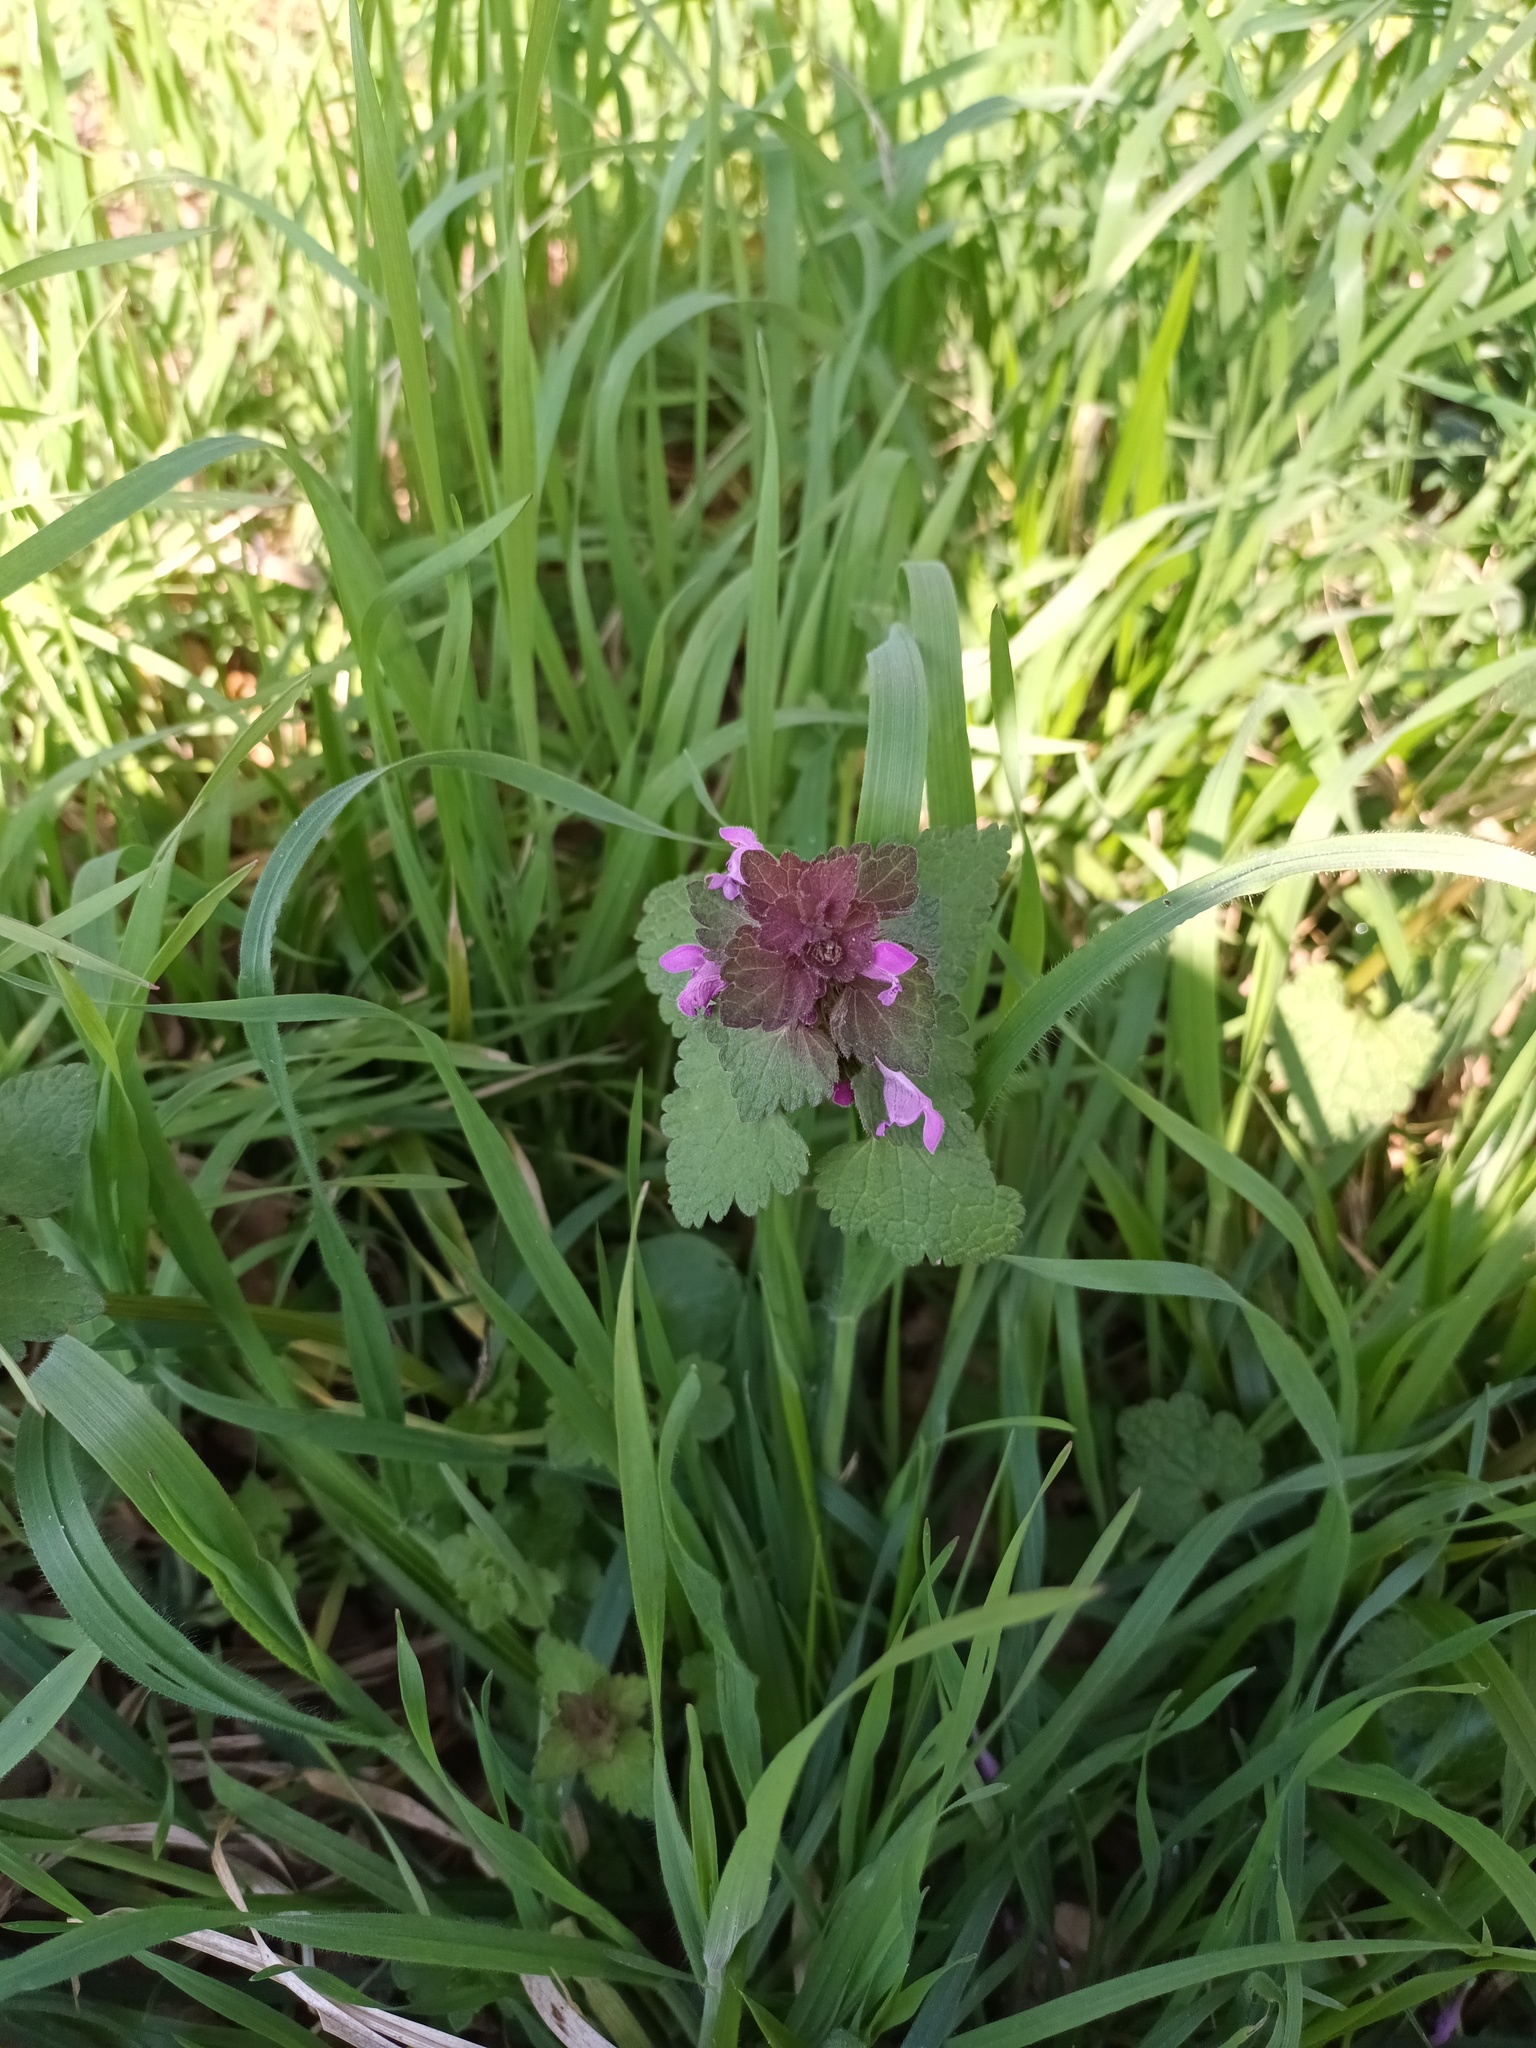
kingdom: Plantae
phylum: Tracheophyta
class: Magnoliopsida
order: Lamiales
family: Lamiaceae
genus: Lamium
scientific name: Lamium purpureum
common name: Red dead-nettle
